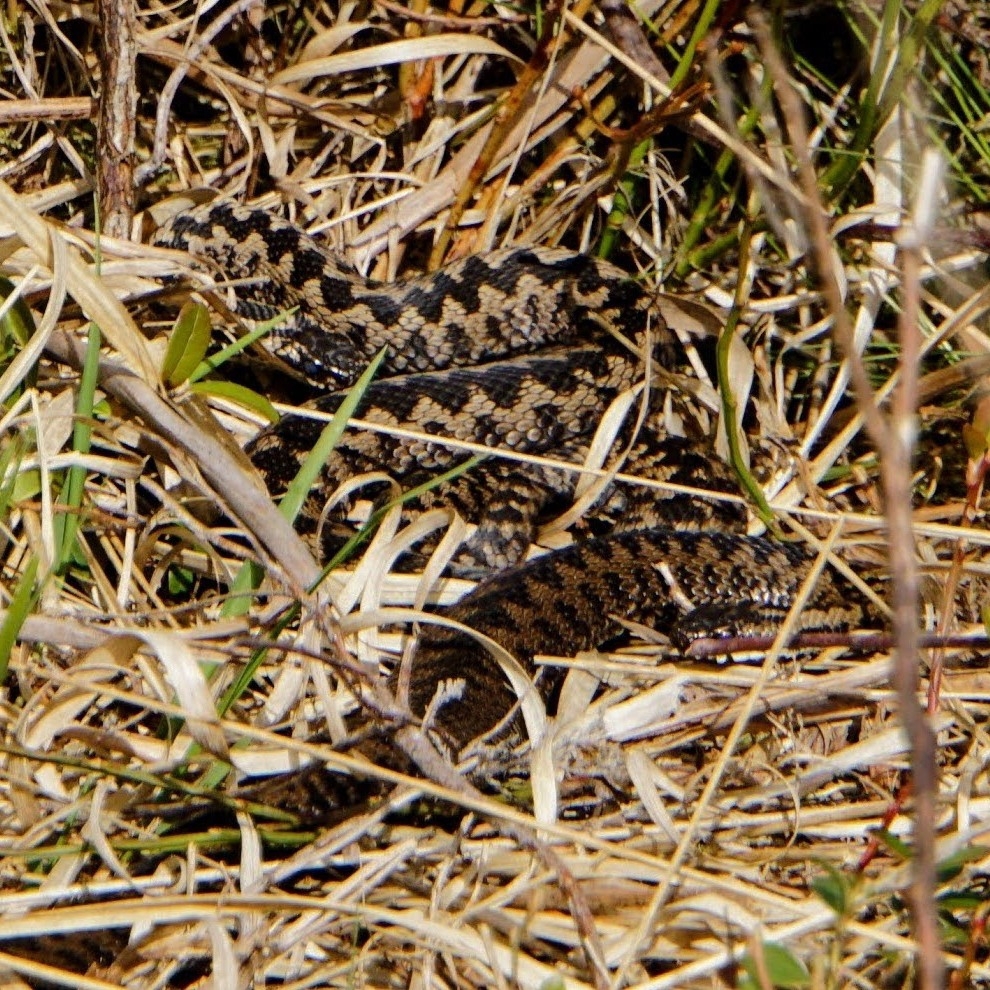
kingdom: Animalia
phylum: Chordata
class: Squamata
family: Viperidae
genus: Vipera
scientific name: Vipera berus
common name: Adder
